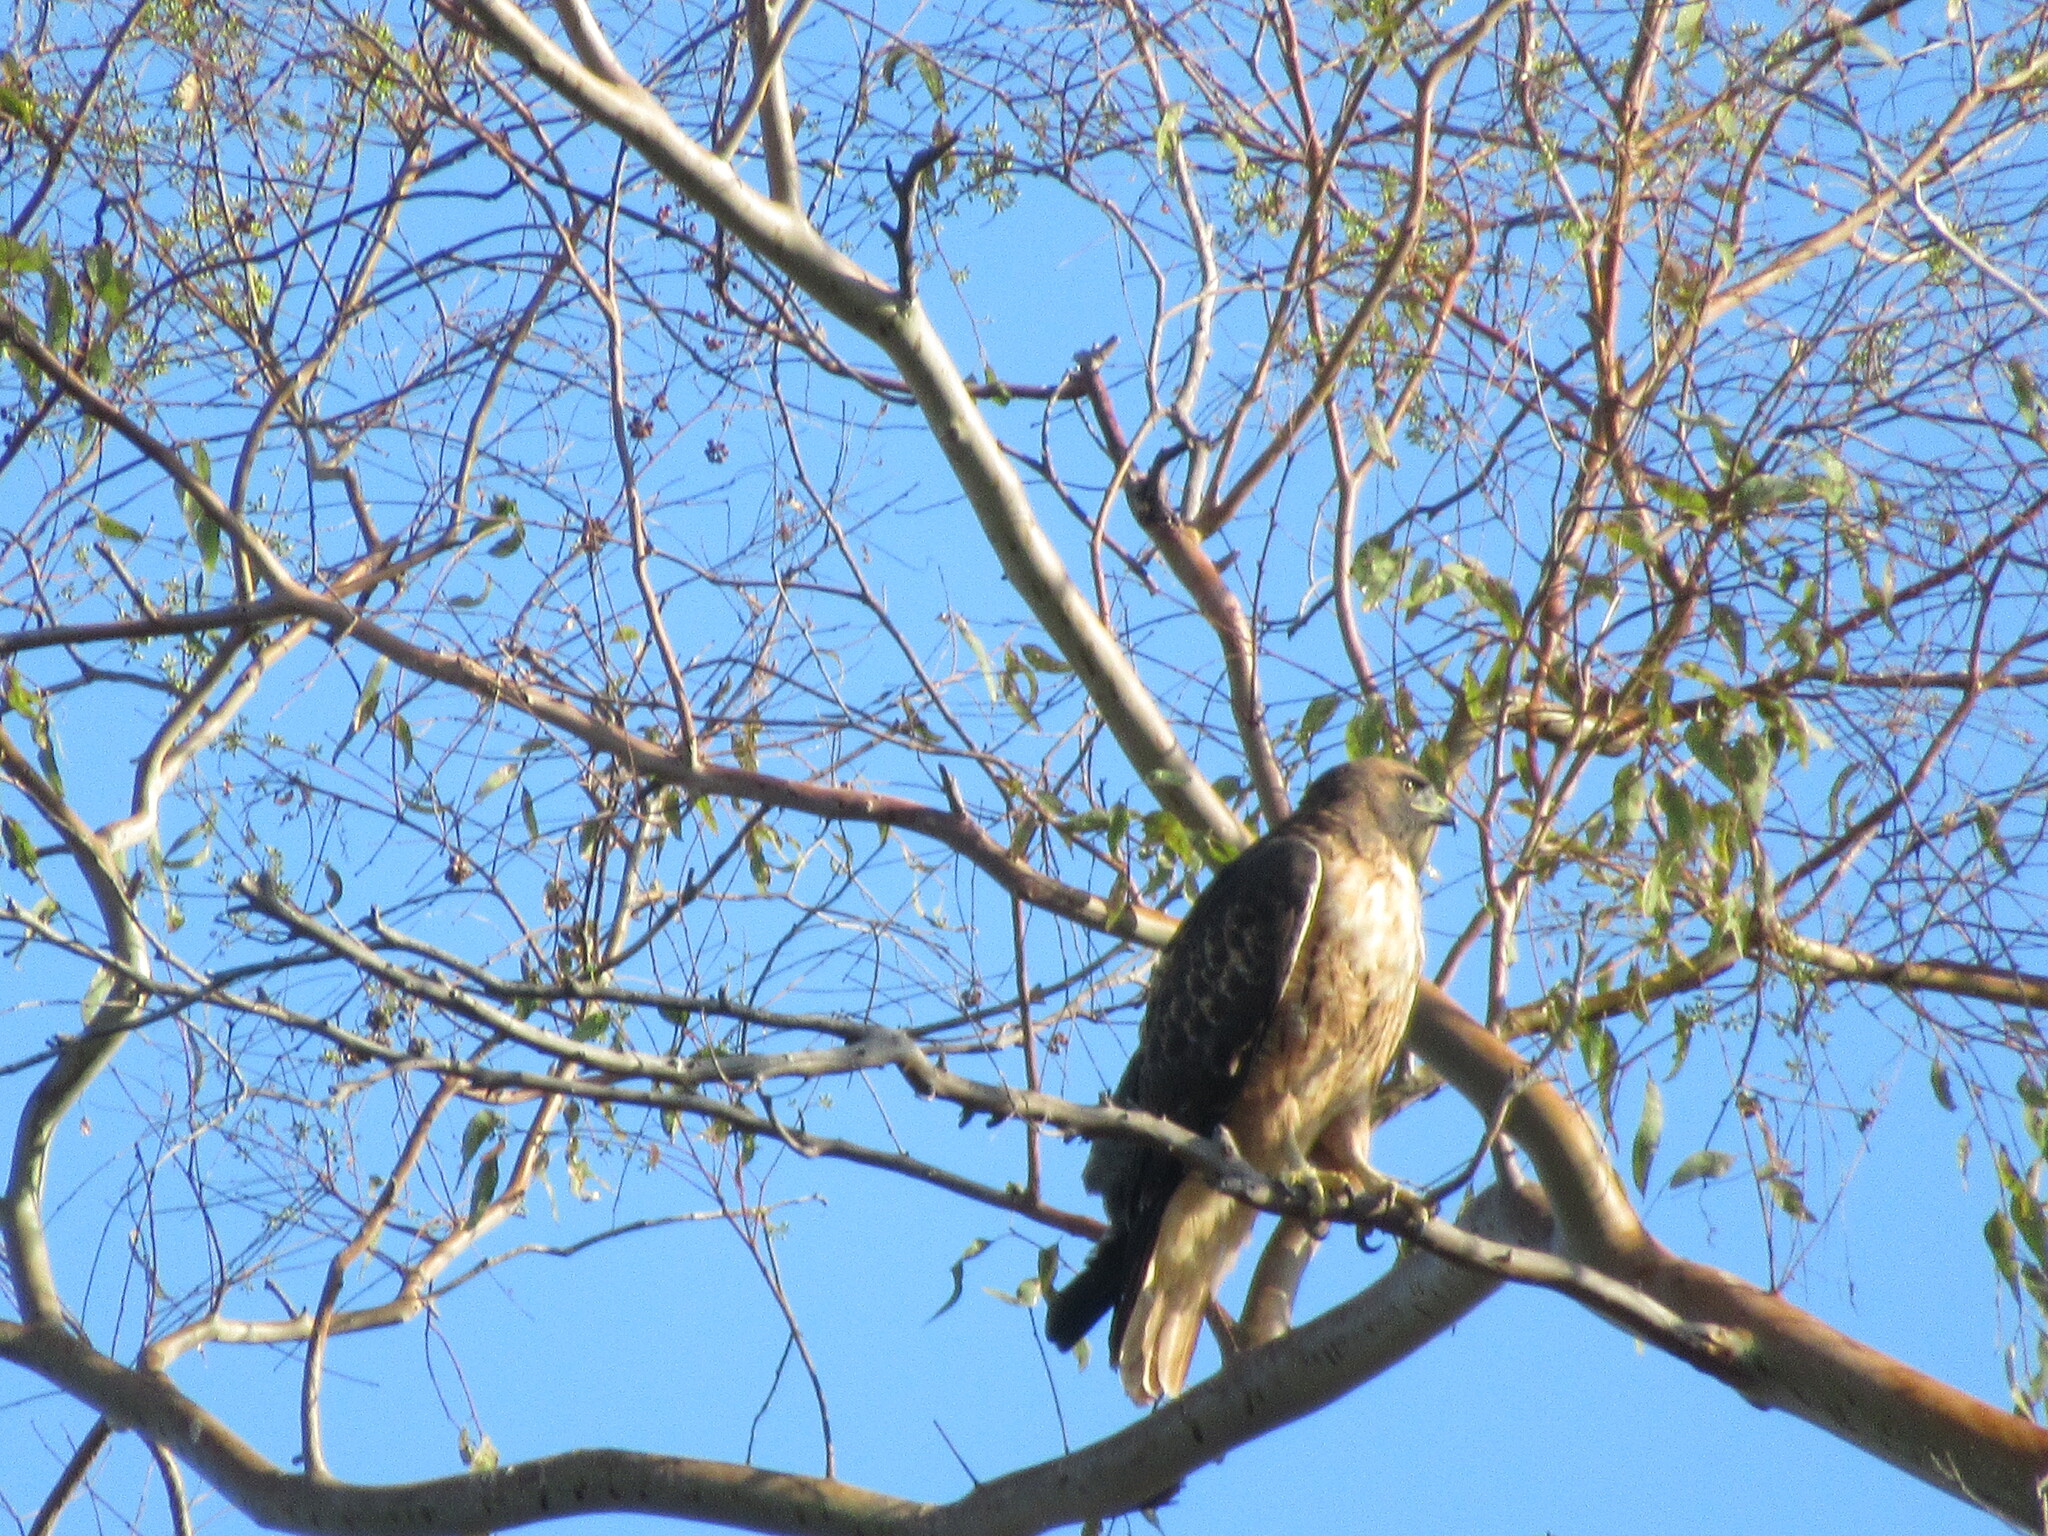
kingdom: Animalia
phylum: Chordata
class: Aves
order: Accipitriformes
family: Accipitridae
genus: Buteo
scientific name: Buteo jamaicensis
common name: Red-tailed hawk
